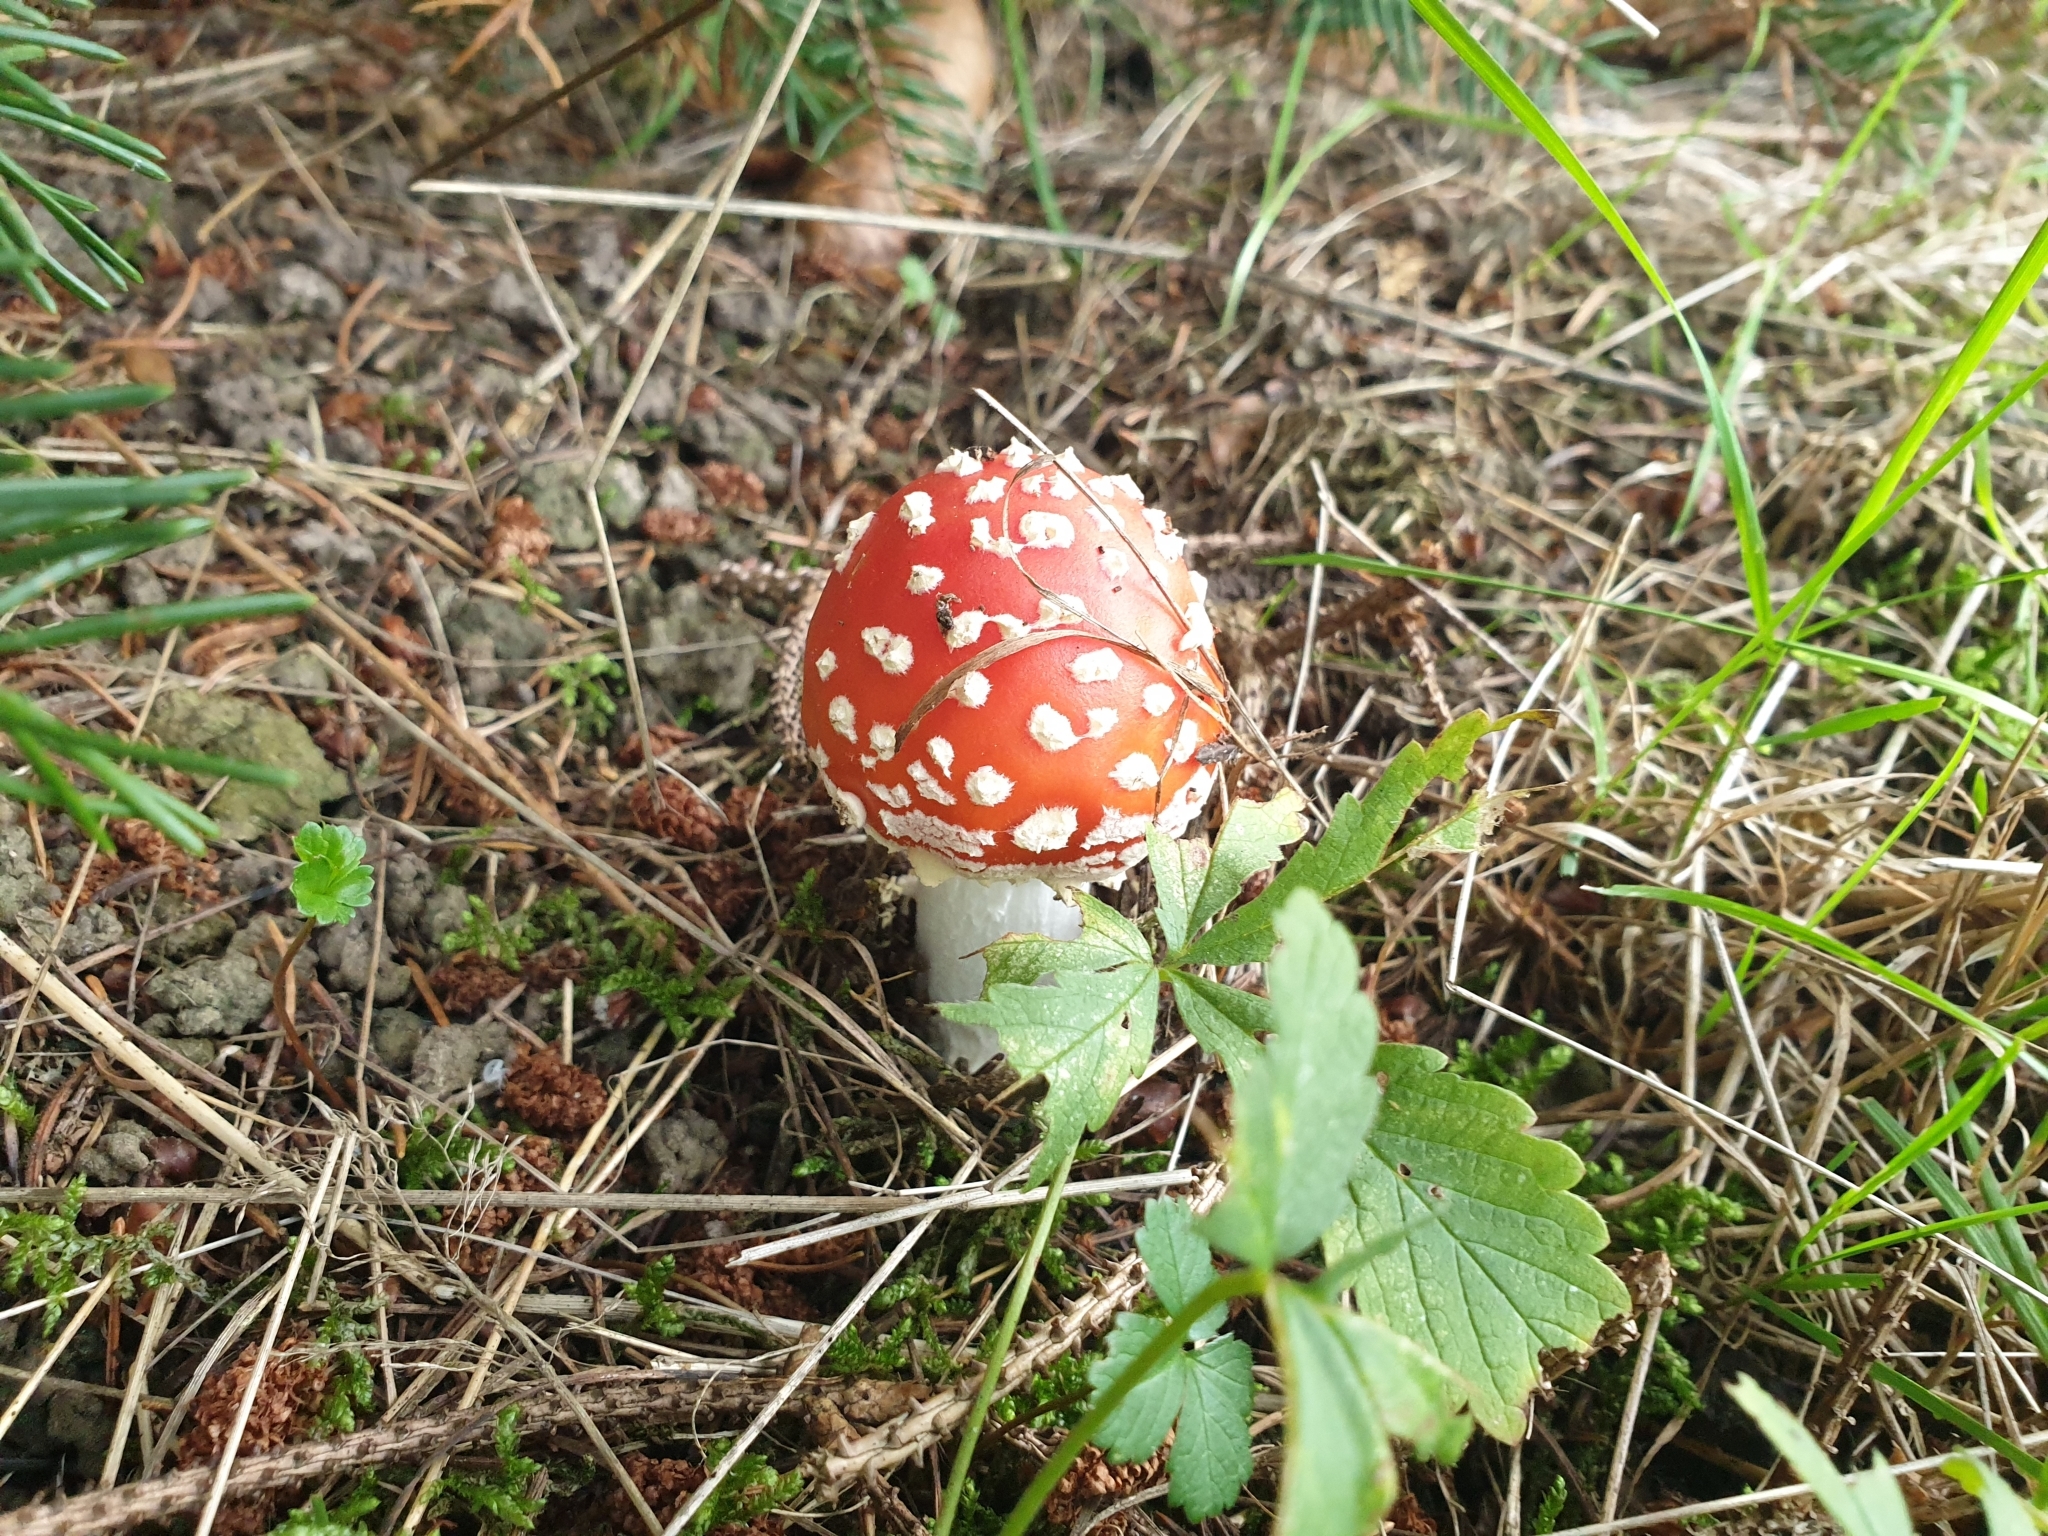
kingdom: Fungi
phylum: Basidiomycota
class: Agaricomycetes
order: Agaricales
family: Amanitaceae
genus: Amanita
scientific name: Amanita muscaria
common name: Fly agaric
